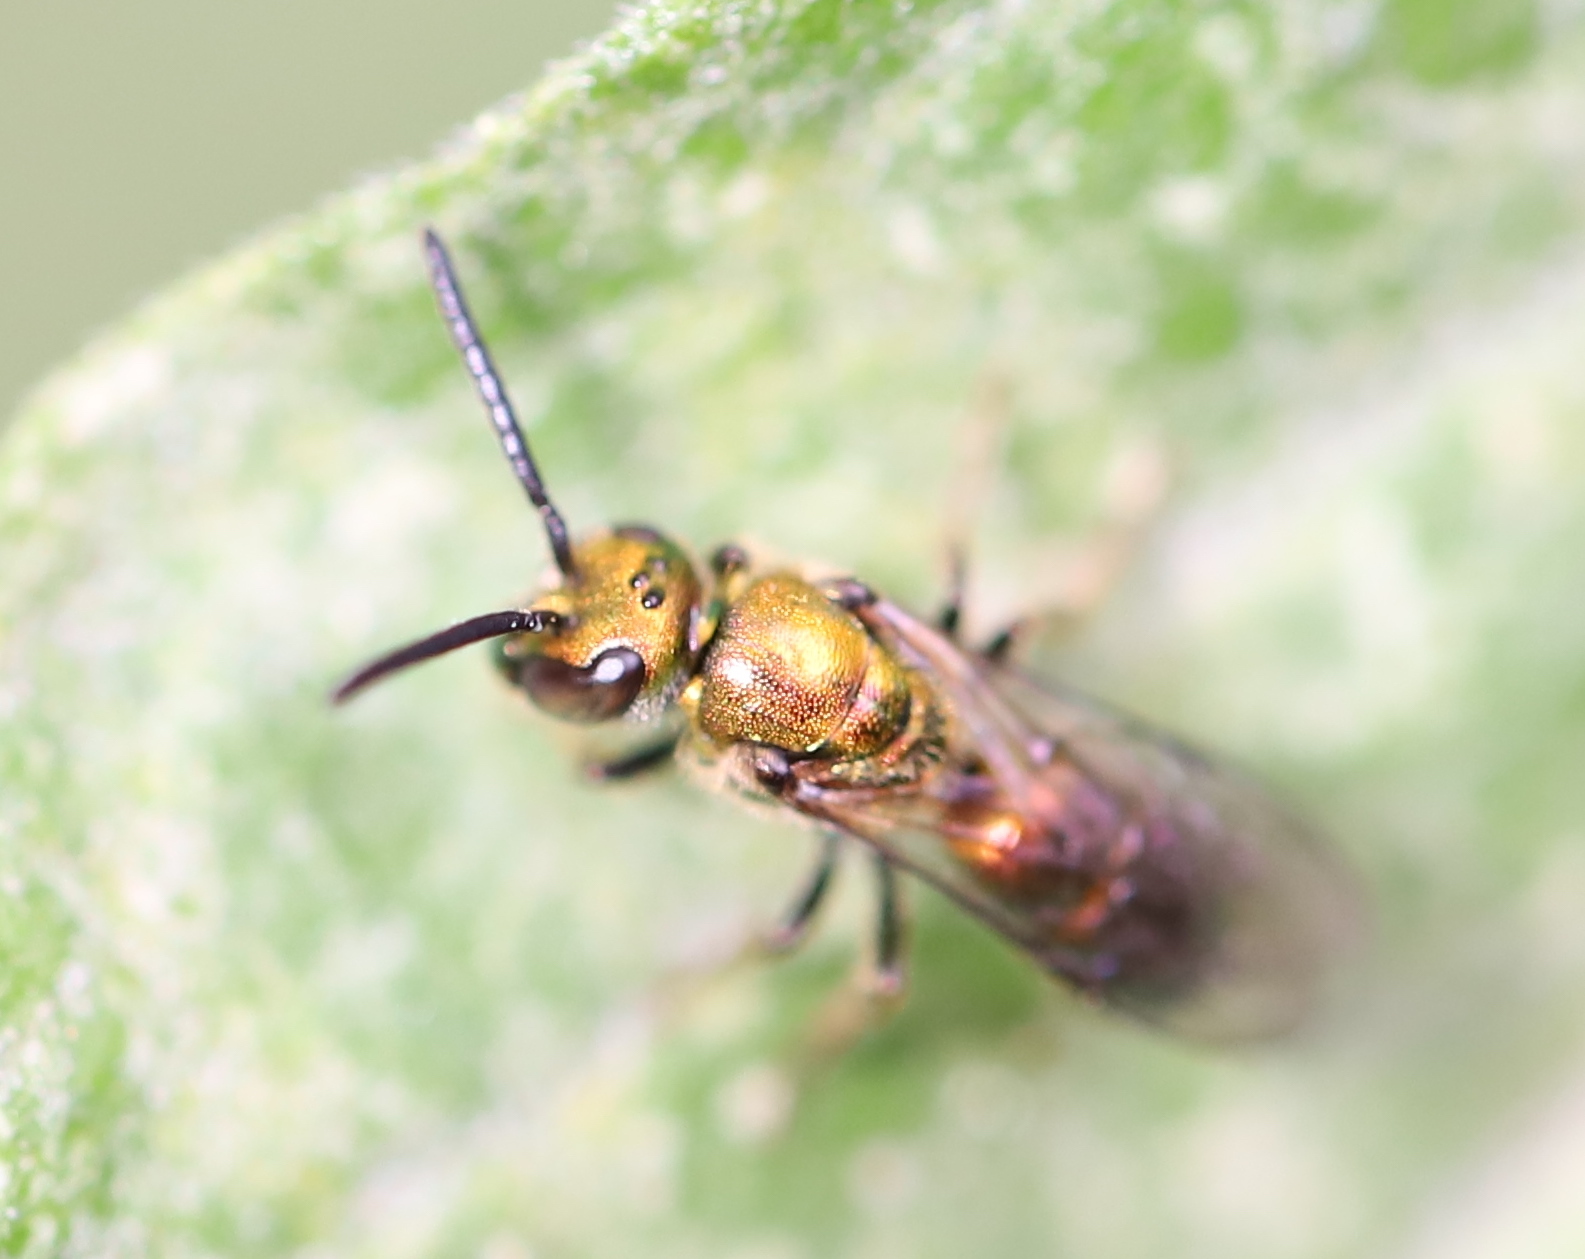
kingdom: Animalia
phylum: Arthropoda
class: Insecta
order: Hymenoptera
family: Halictidae
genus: Augochlora
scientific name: Augochlora pura
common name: Pure green sweat bee
